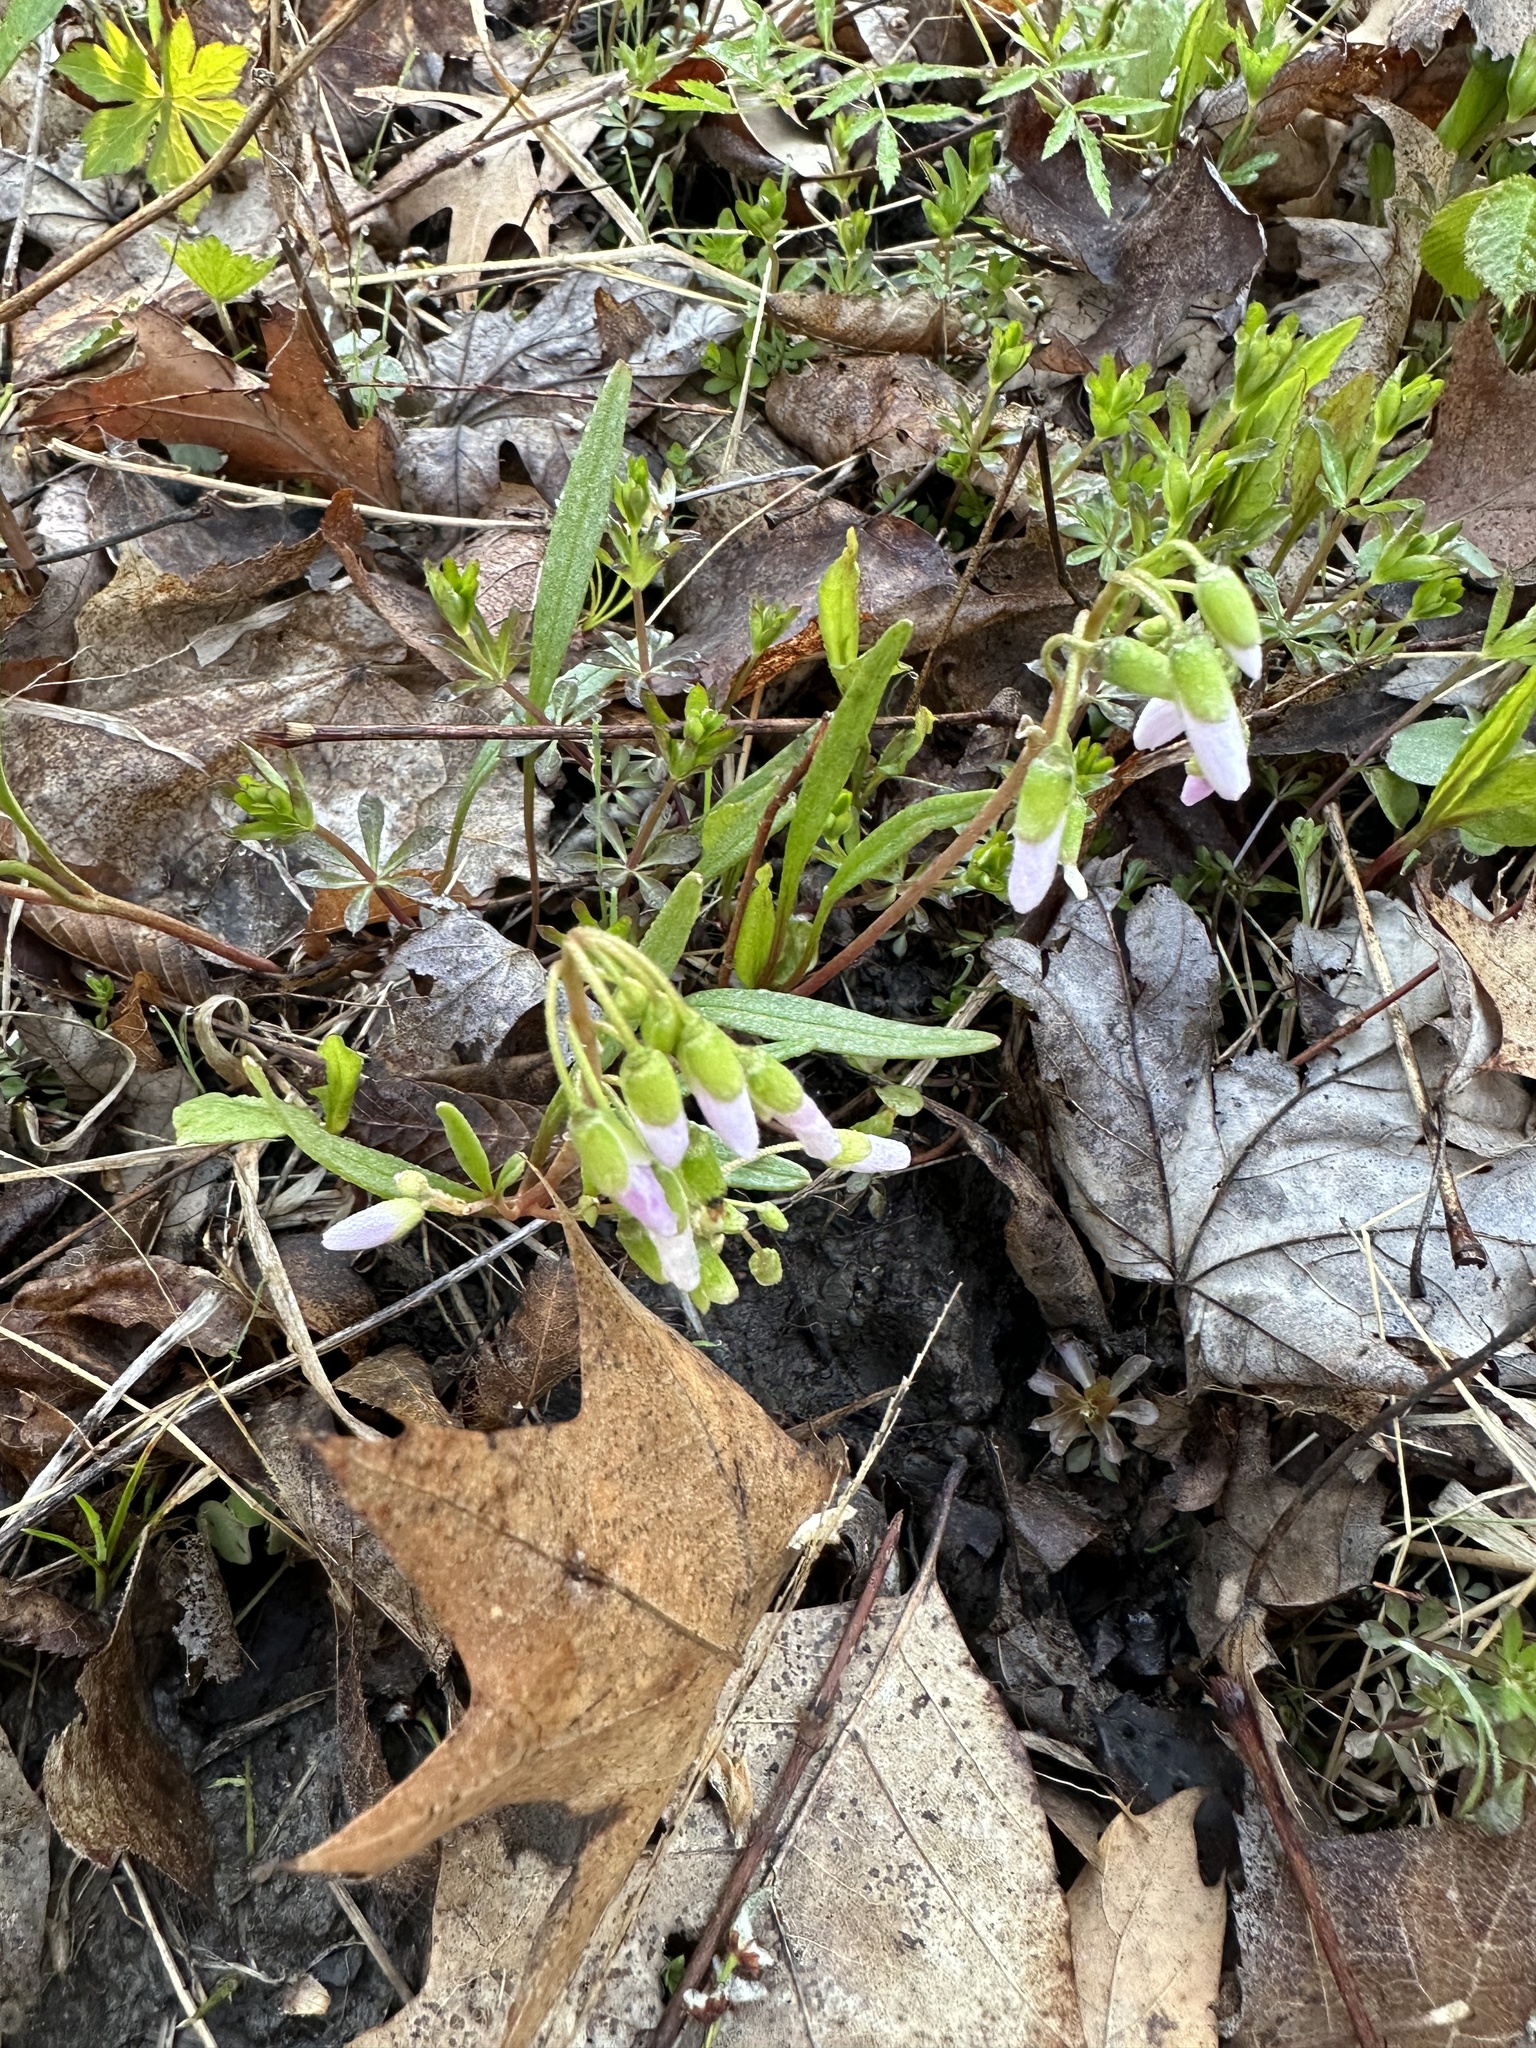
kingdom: Plantae
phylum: Tracheophyta
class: Magnoliopsida
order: Caryophyllales
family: Montiaceae
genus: Claytonia
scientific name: Claytonia virginica
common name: Virginia springbeauty
